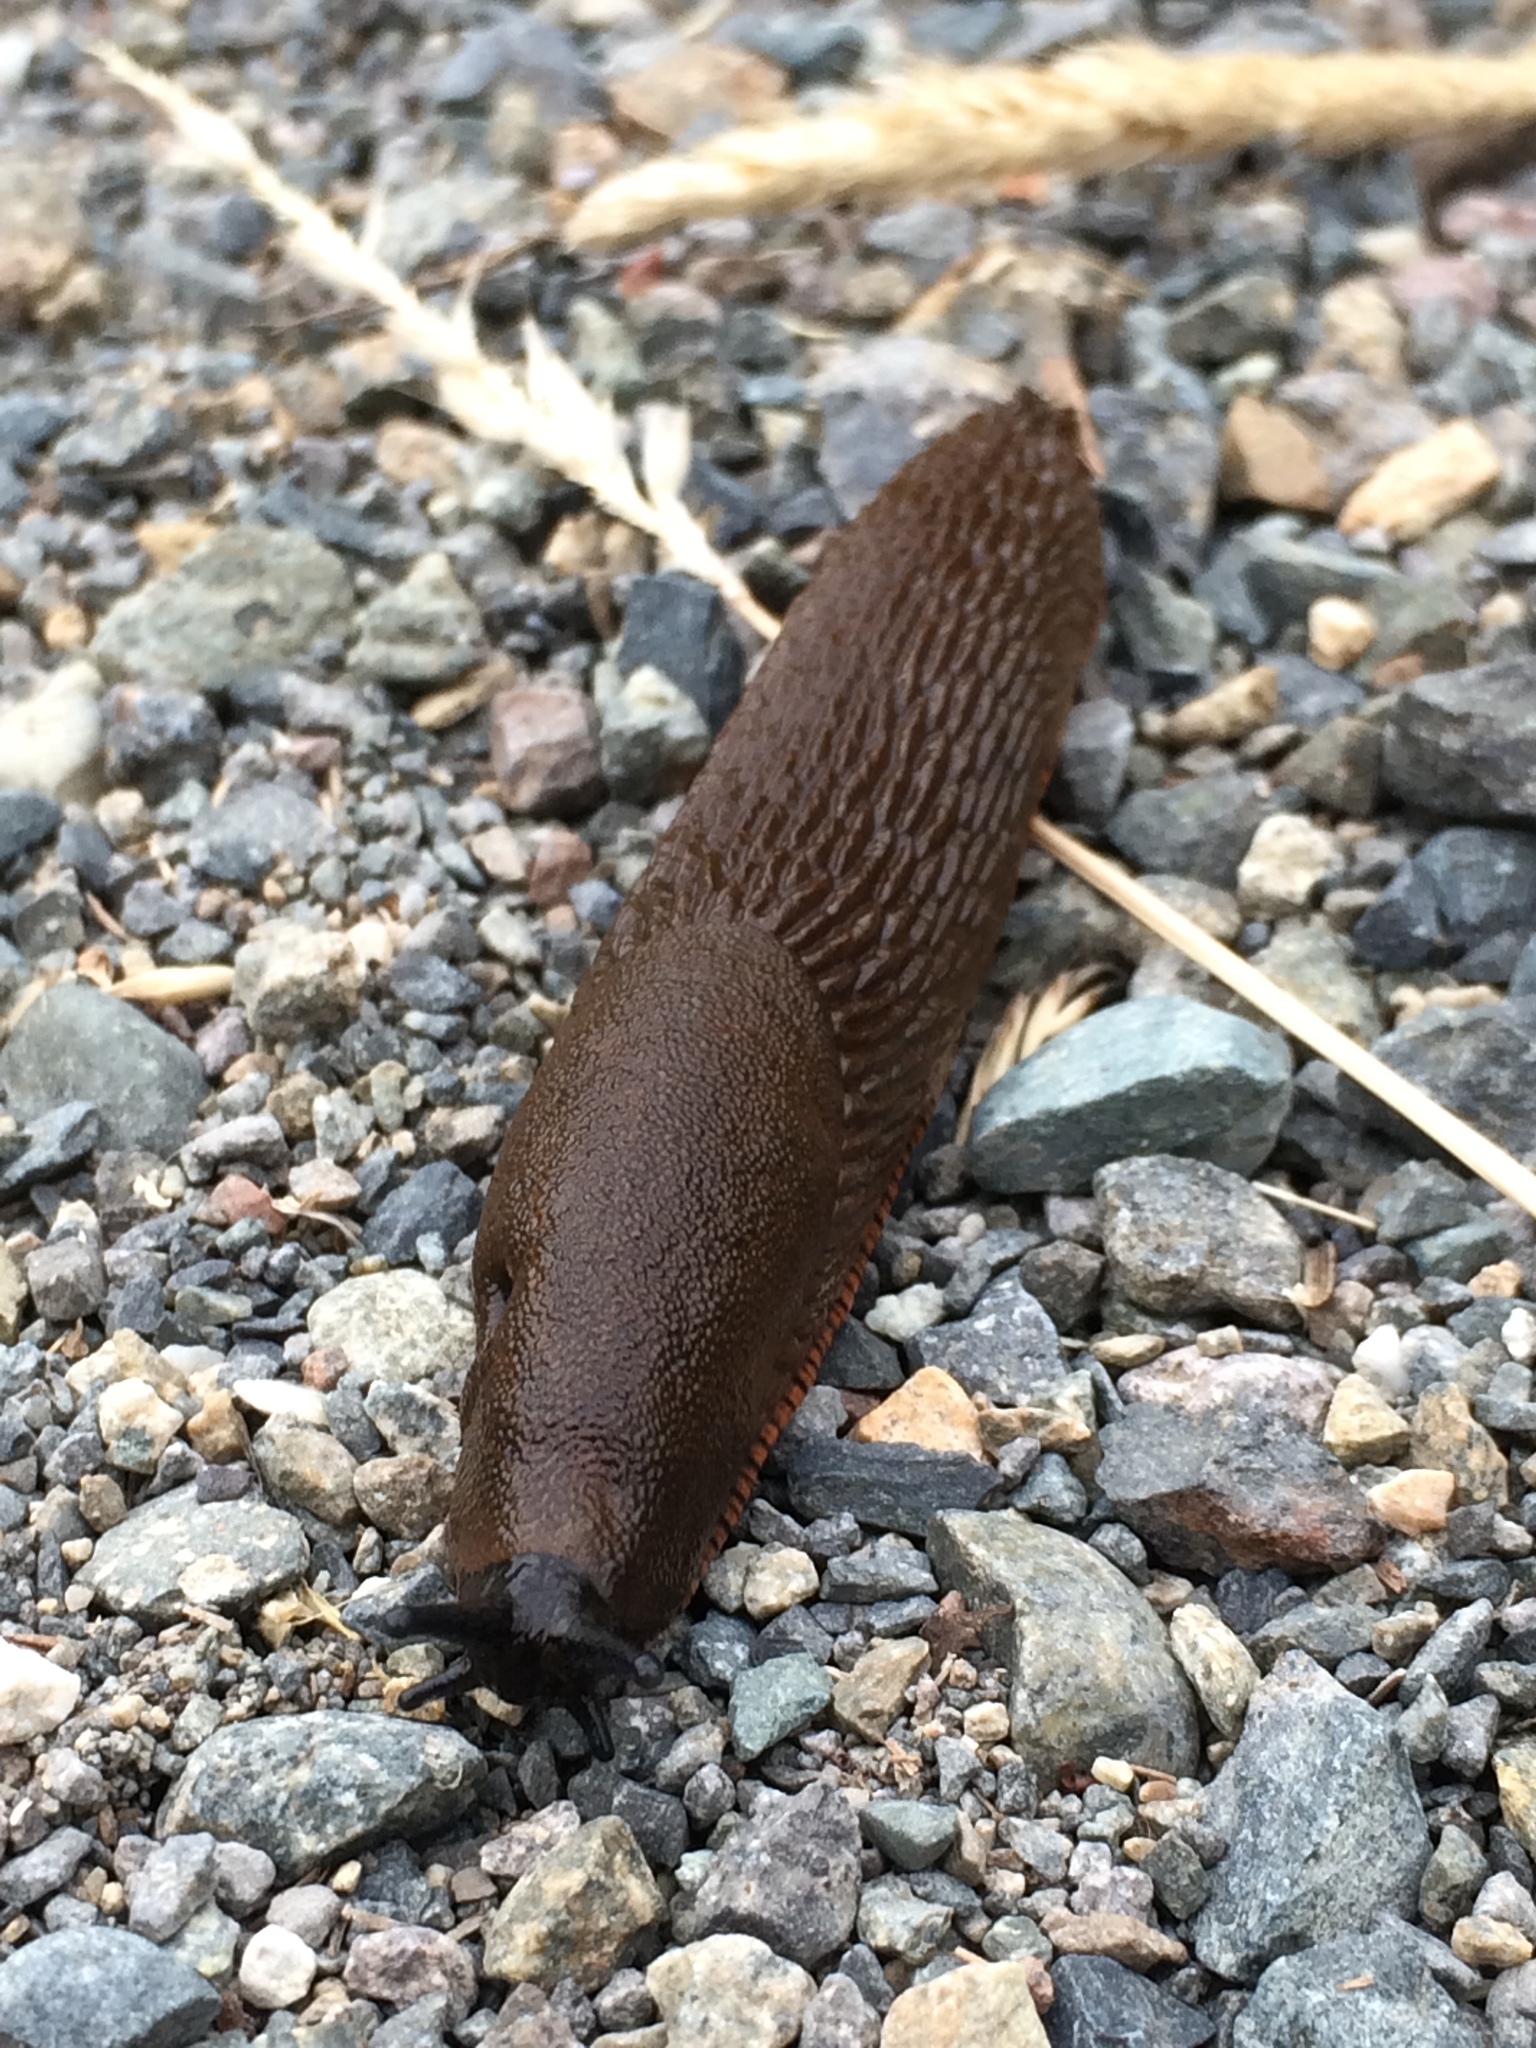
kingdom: Animalia
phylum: Mollusca
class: Gastropoda
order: Stylommatophora
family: Arionidae
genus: Arion
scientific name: Arion rufus
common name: Chocolate arion
